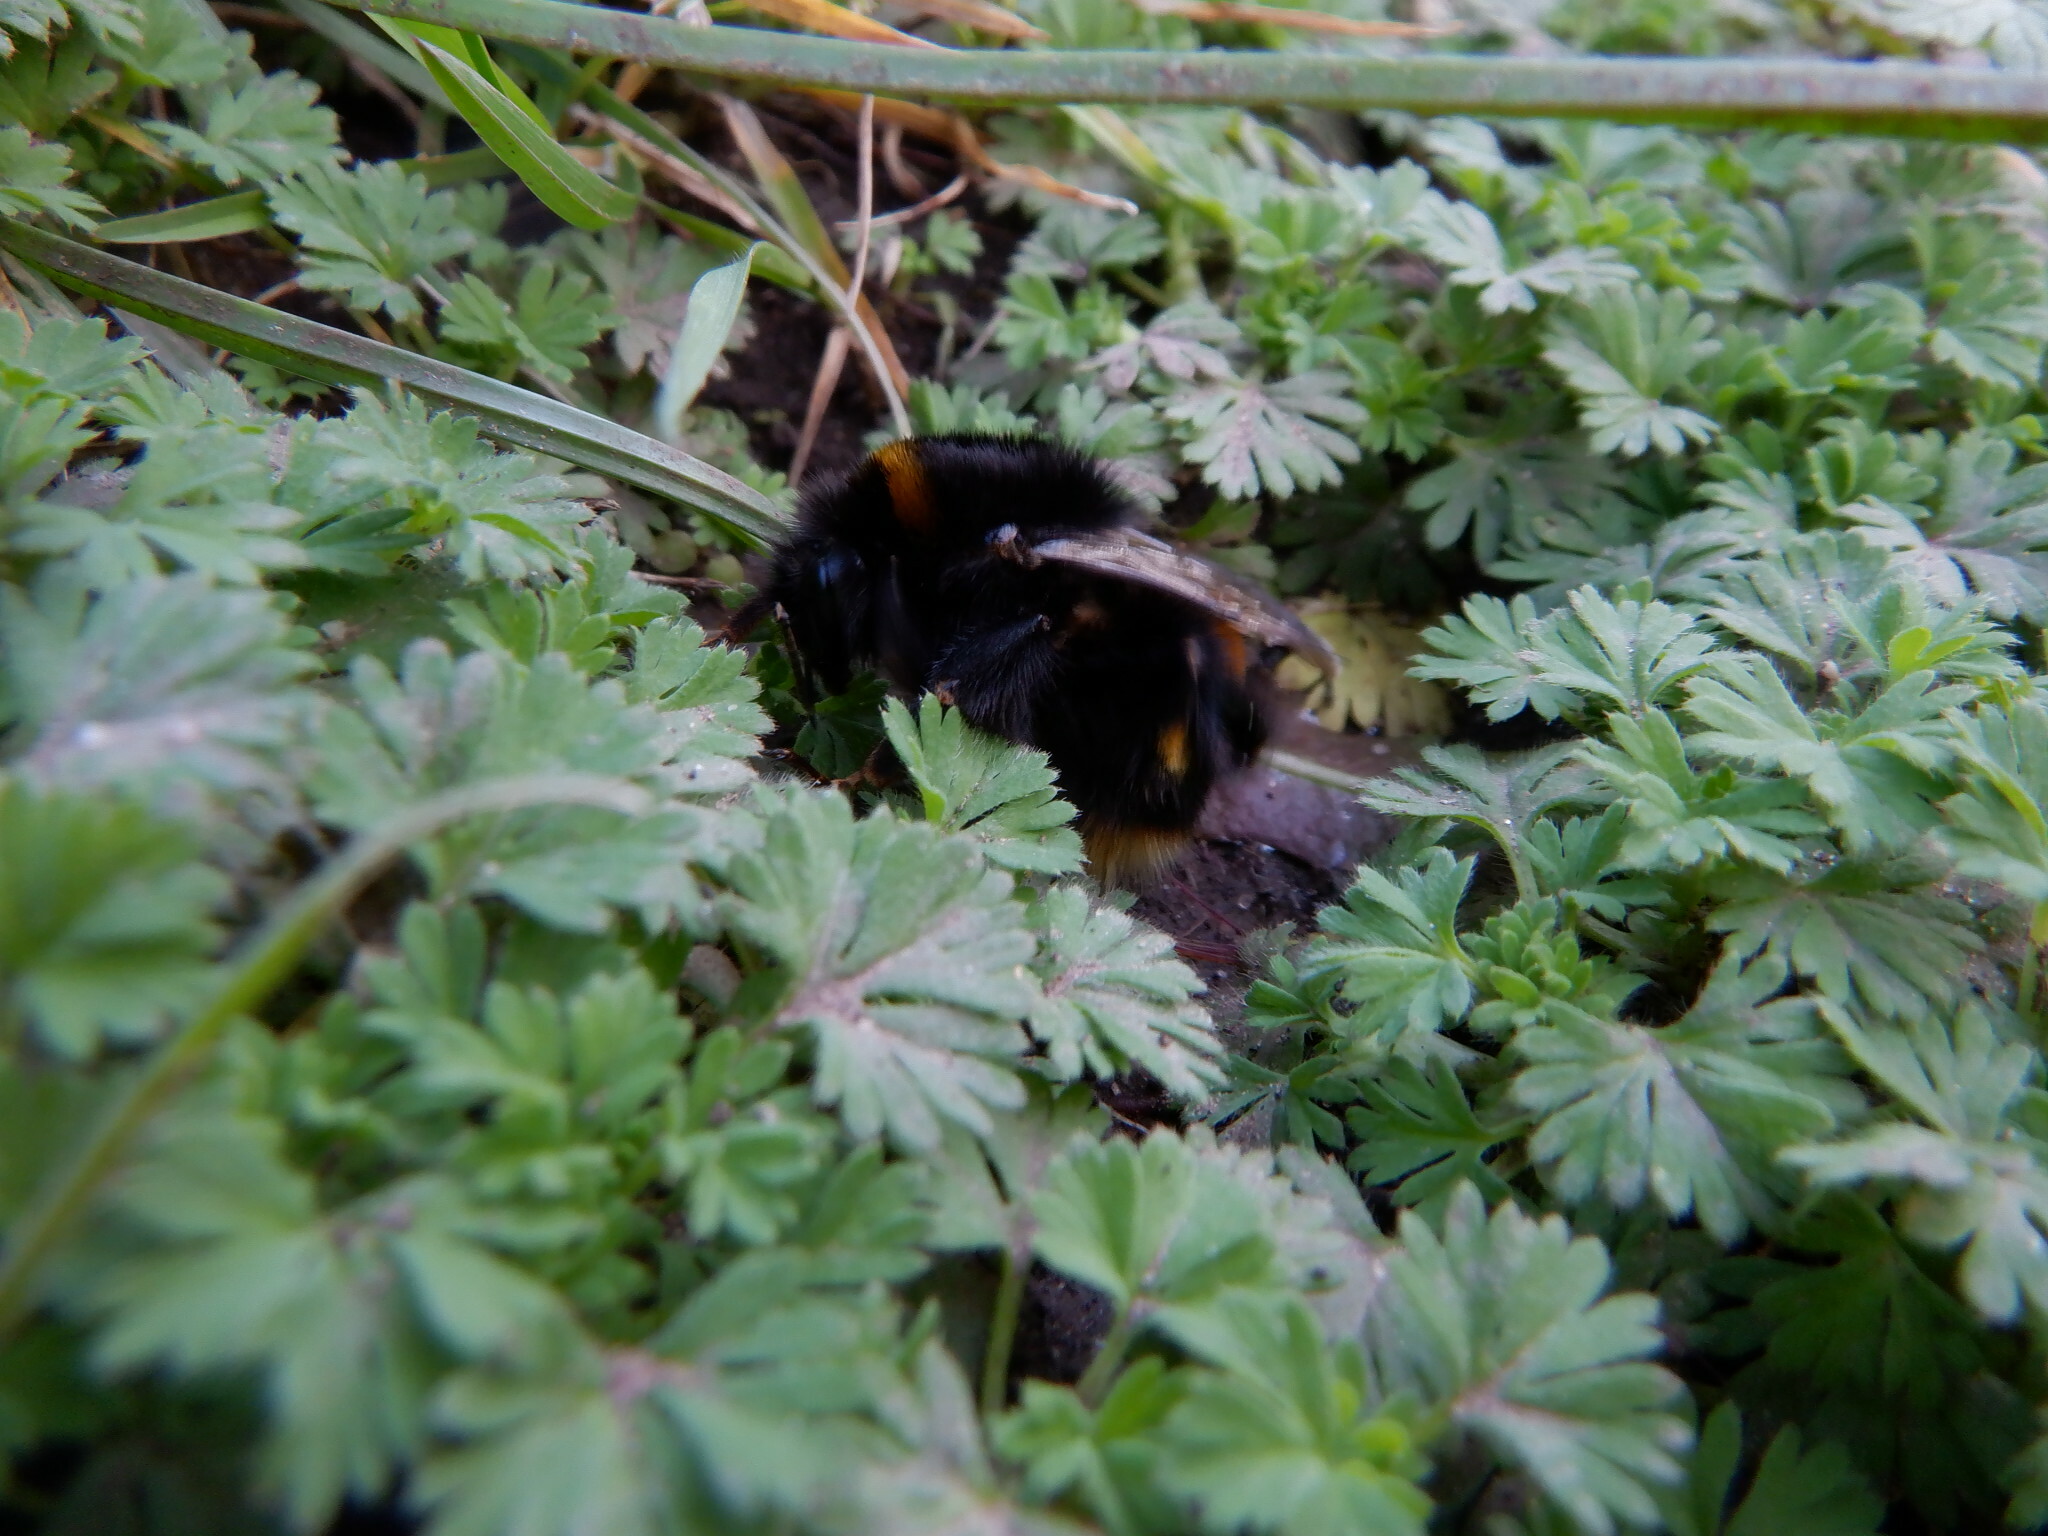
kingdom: Animalia
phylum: Arthropoda
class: Insecta
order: Hymenoptera
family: Apidae
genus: Bombus
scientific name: Bombus terrestris
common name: Buff-tailed bumblebee
